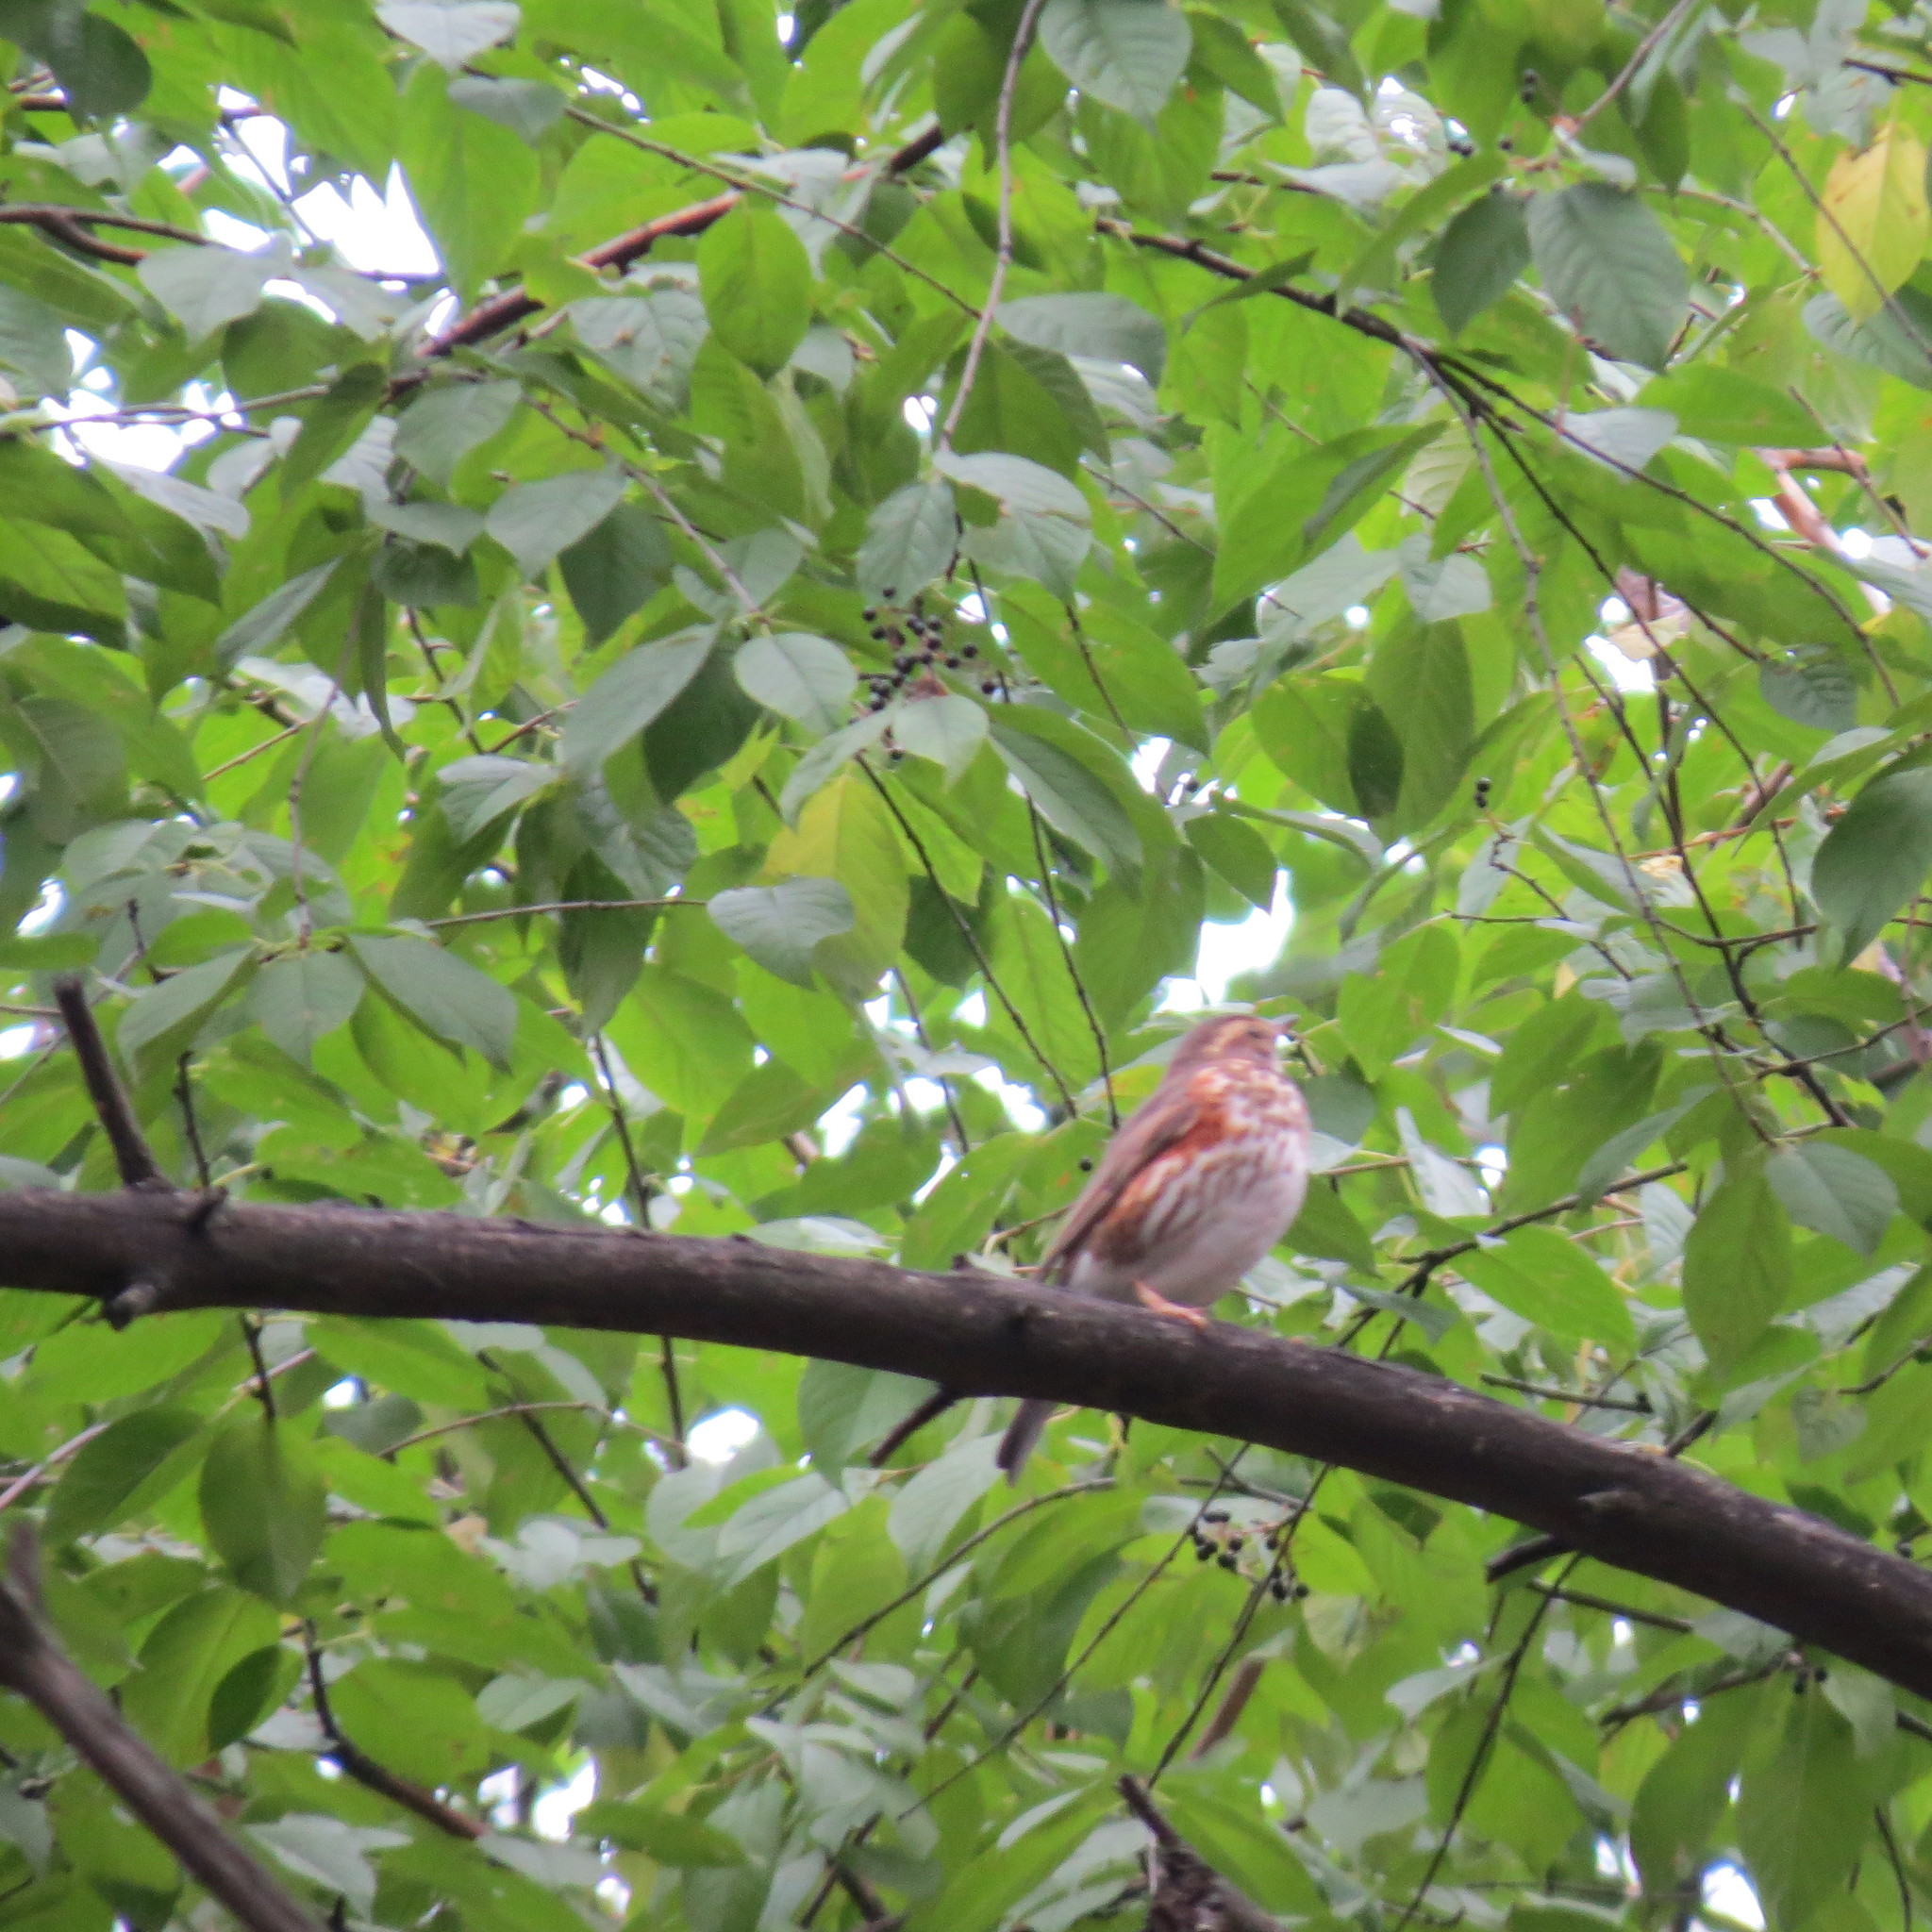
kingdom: Animalia
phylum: Chordata
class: Aves
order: Passeriformes
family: Turdidae
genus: Turdus
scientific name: Turdus iliacus
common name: Redwing
